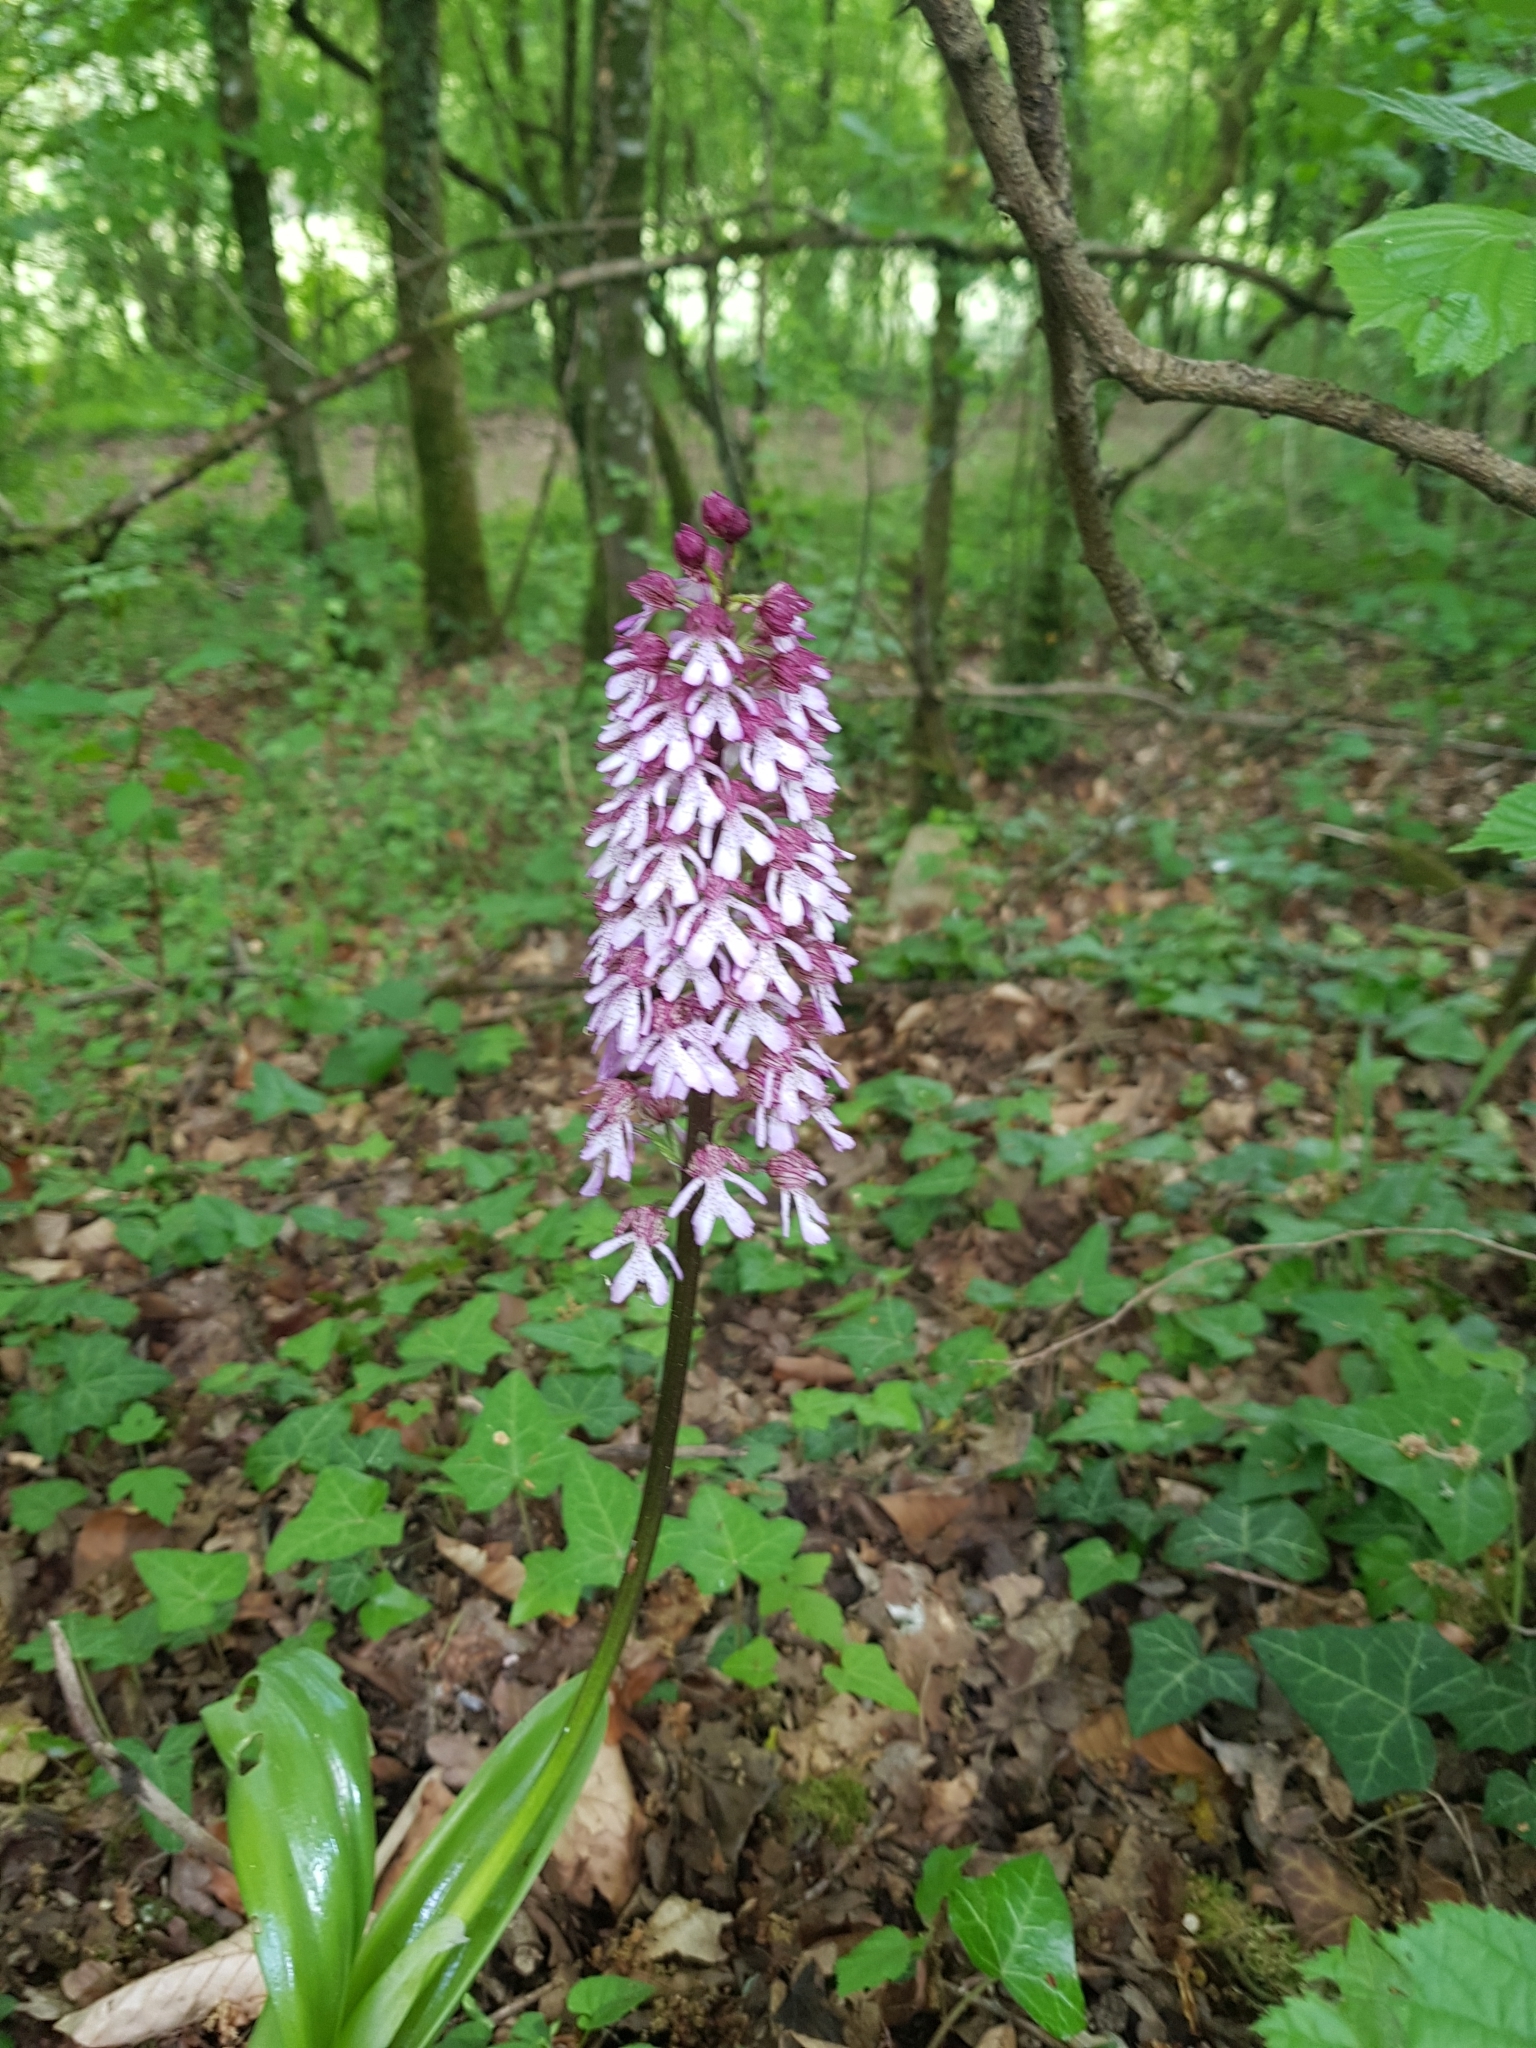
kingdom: Plantae
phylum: Tracheophyta
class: Liliopsida
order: Asparagales
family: Orchidaceae
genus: Orchis
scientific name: Orchis purpurea
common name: Lady orchid
